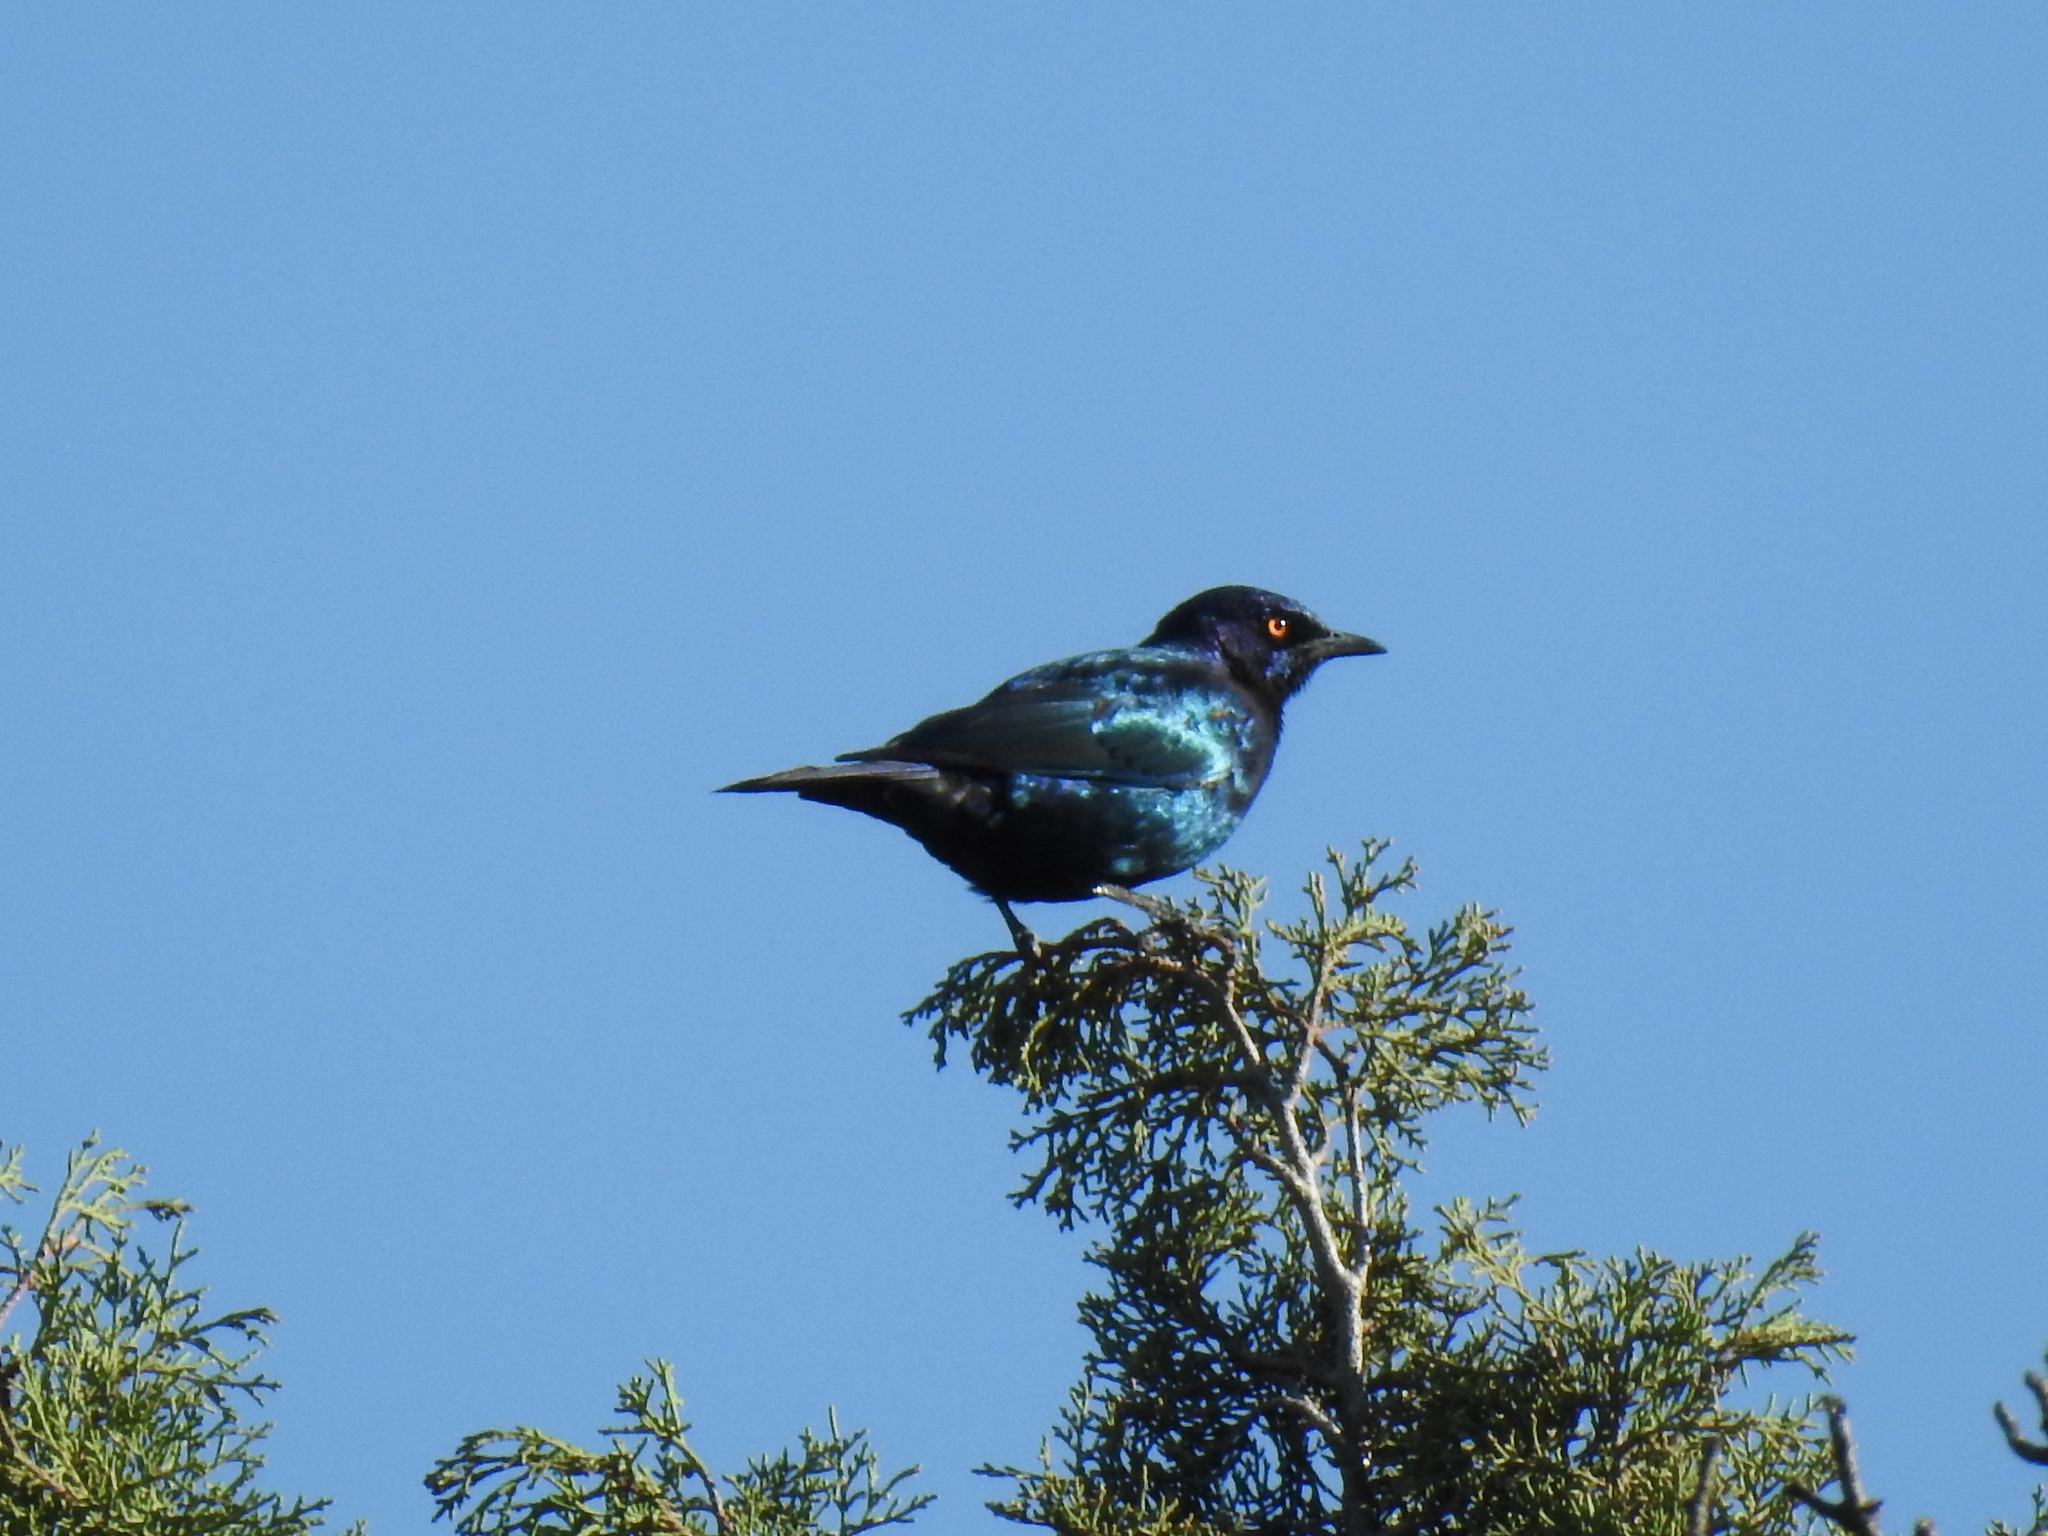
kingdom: Animalia
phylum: Chordata
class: Aves
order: Passeriformes
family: Sturnidae
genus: Lamprotornis
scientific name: Lamprotornis nitens
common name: Cape starling
